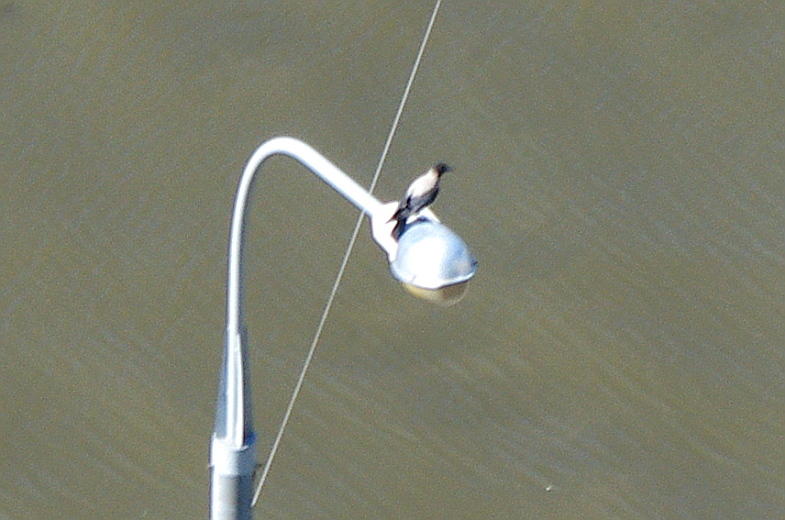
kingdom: Animalia
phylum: Chordata
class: Aves
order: Passeriformes
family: Corvidae
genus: Corvus
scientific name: Corvus cornix
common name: Hooded crow
